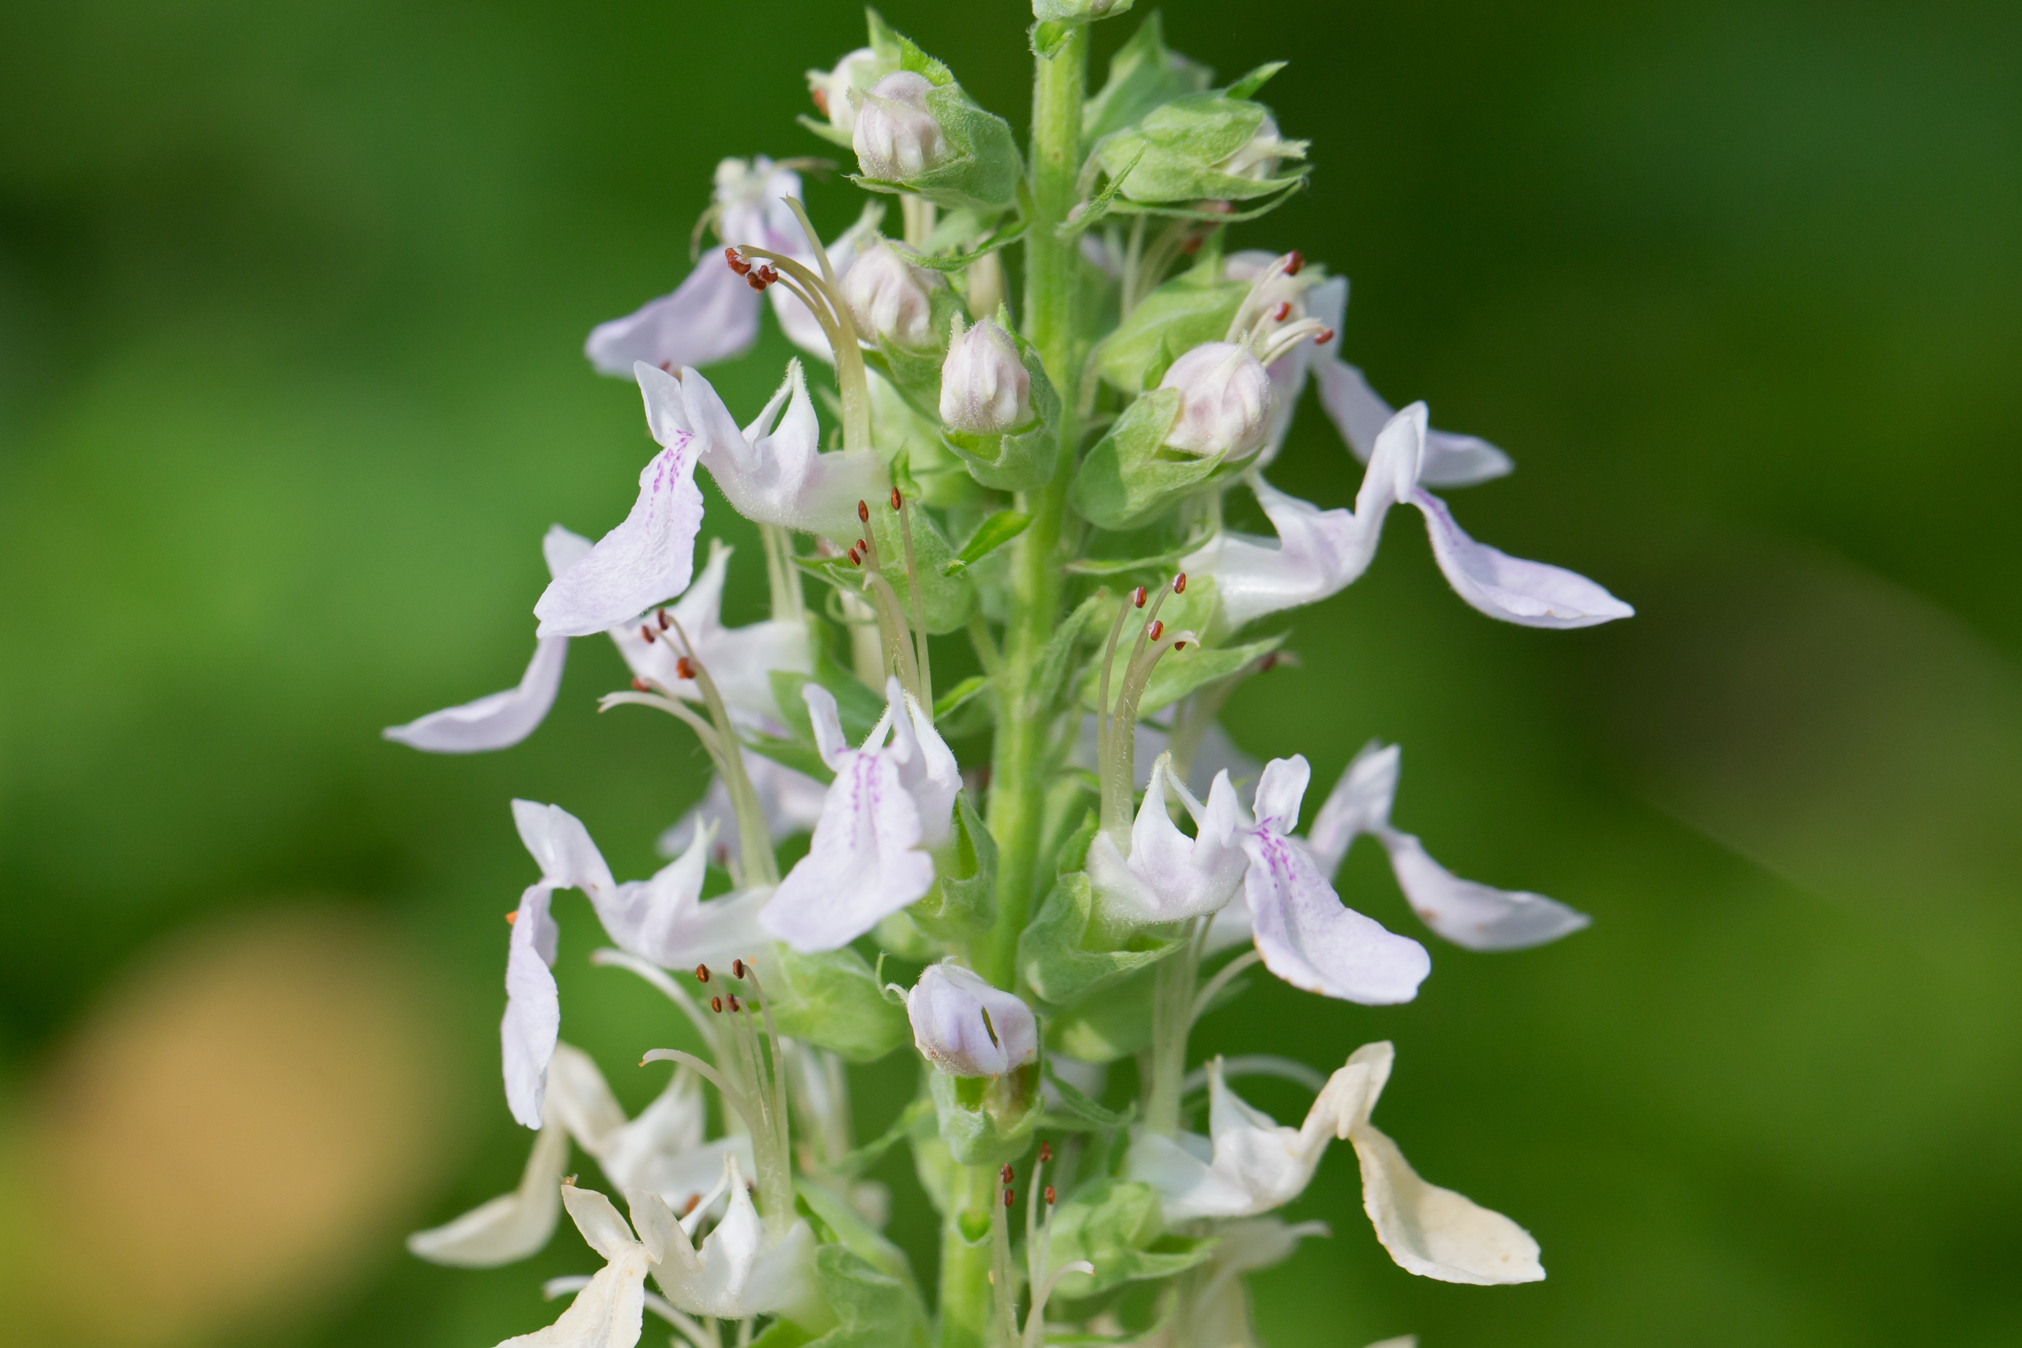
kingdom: Plantae
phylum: Tracheophyta
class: Magnoliopsida
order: Lamiales
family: Lamiaceae
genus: Teucrium
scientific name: Teucrium canadense
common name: American germander
